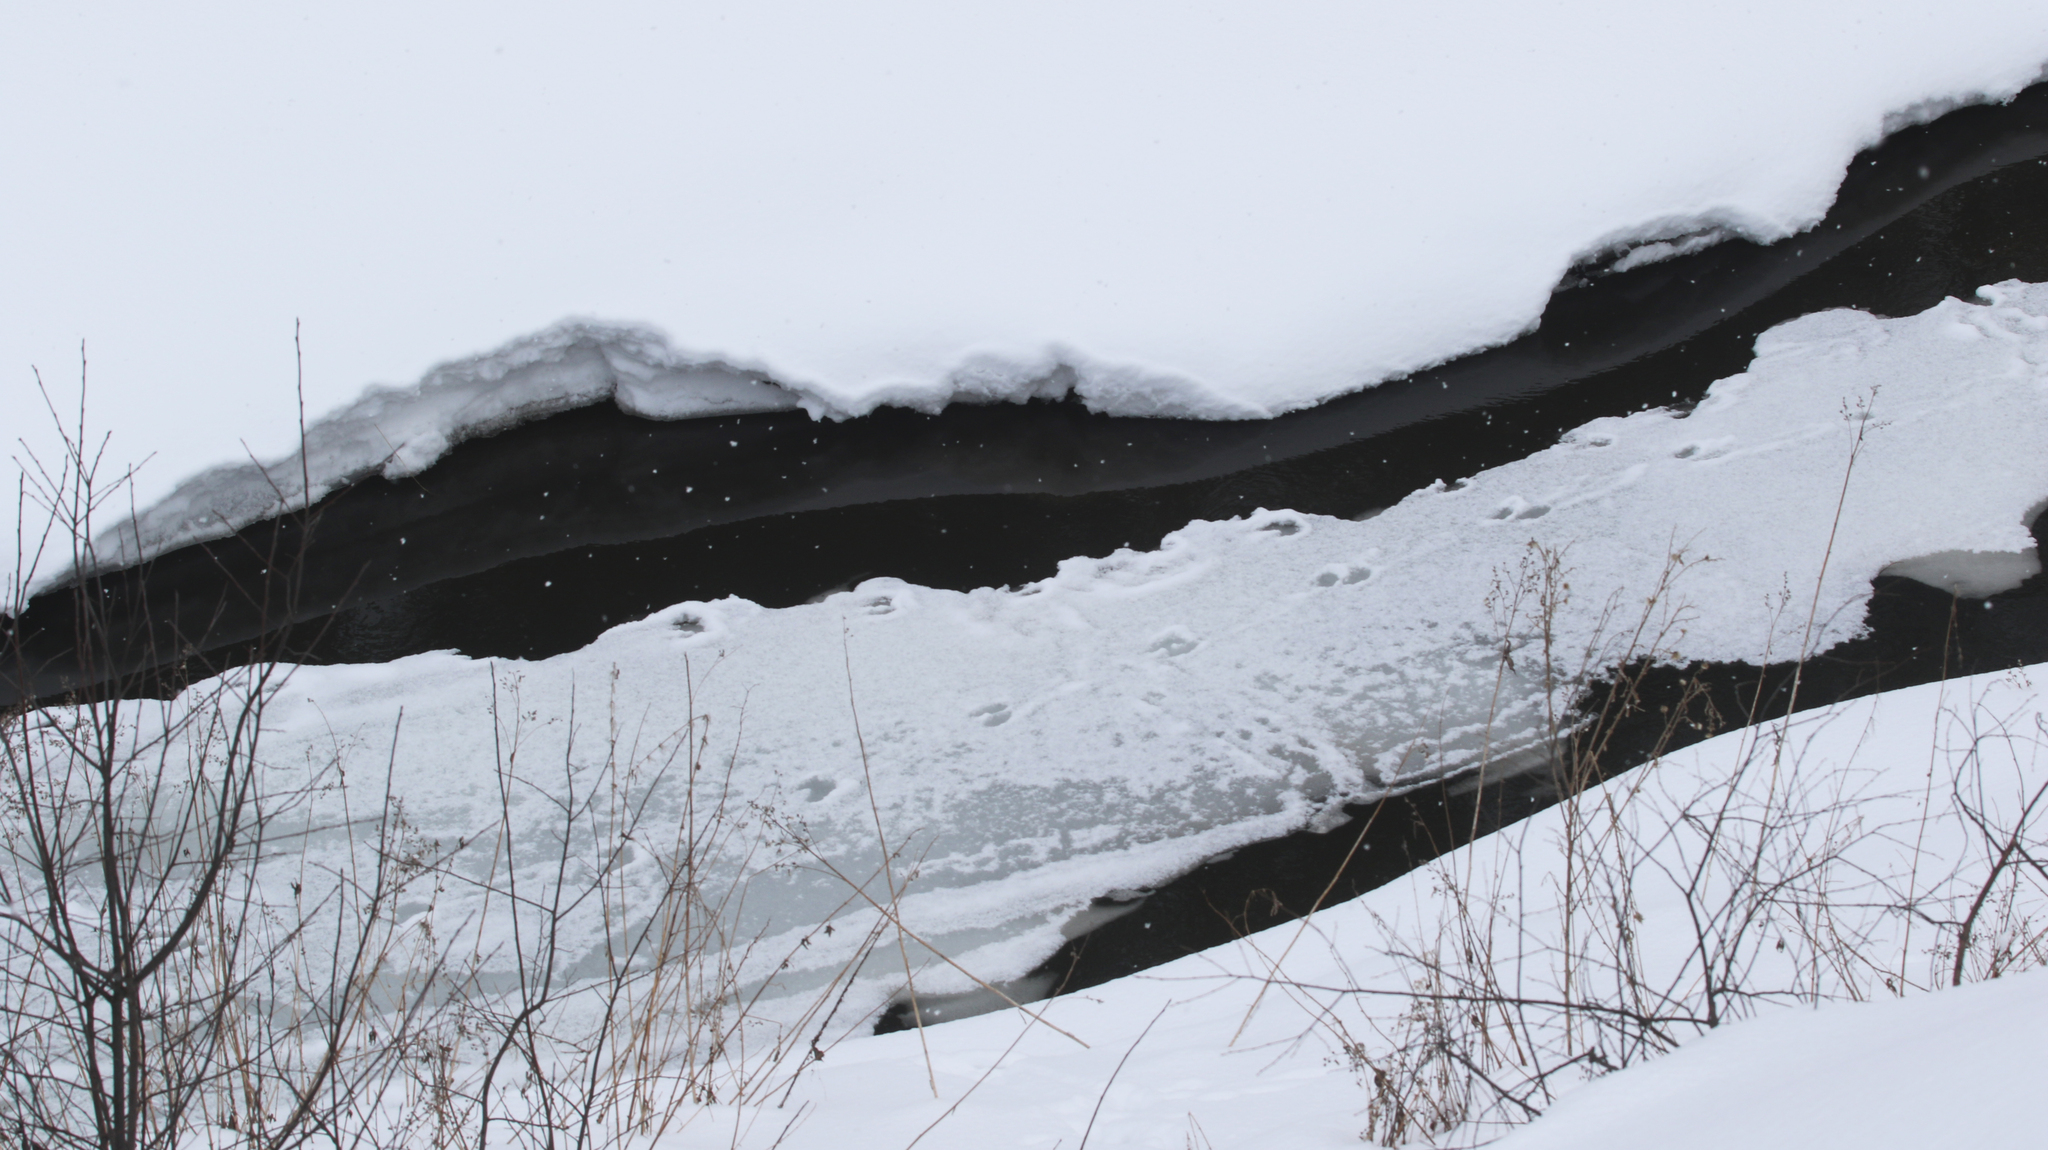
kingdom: Animalia
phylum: Chordata
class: Mammalia
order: Carnivora
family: Mustelidae
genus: Mustela
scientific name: Mustela
